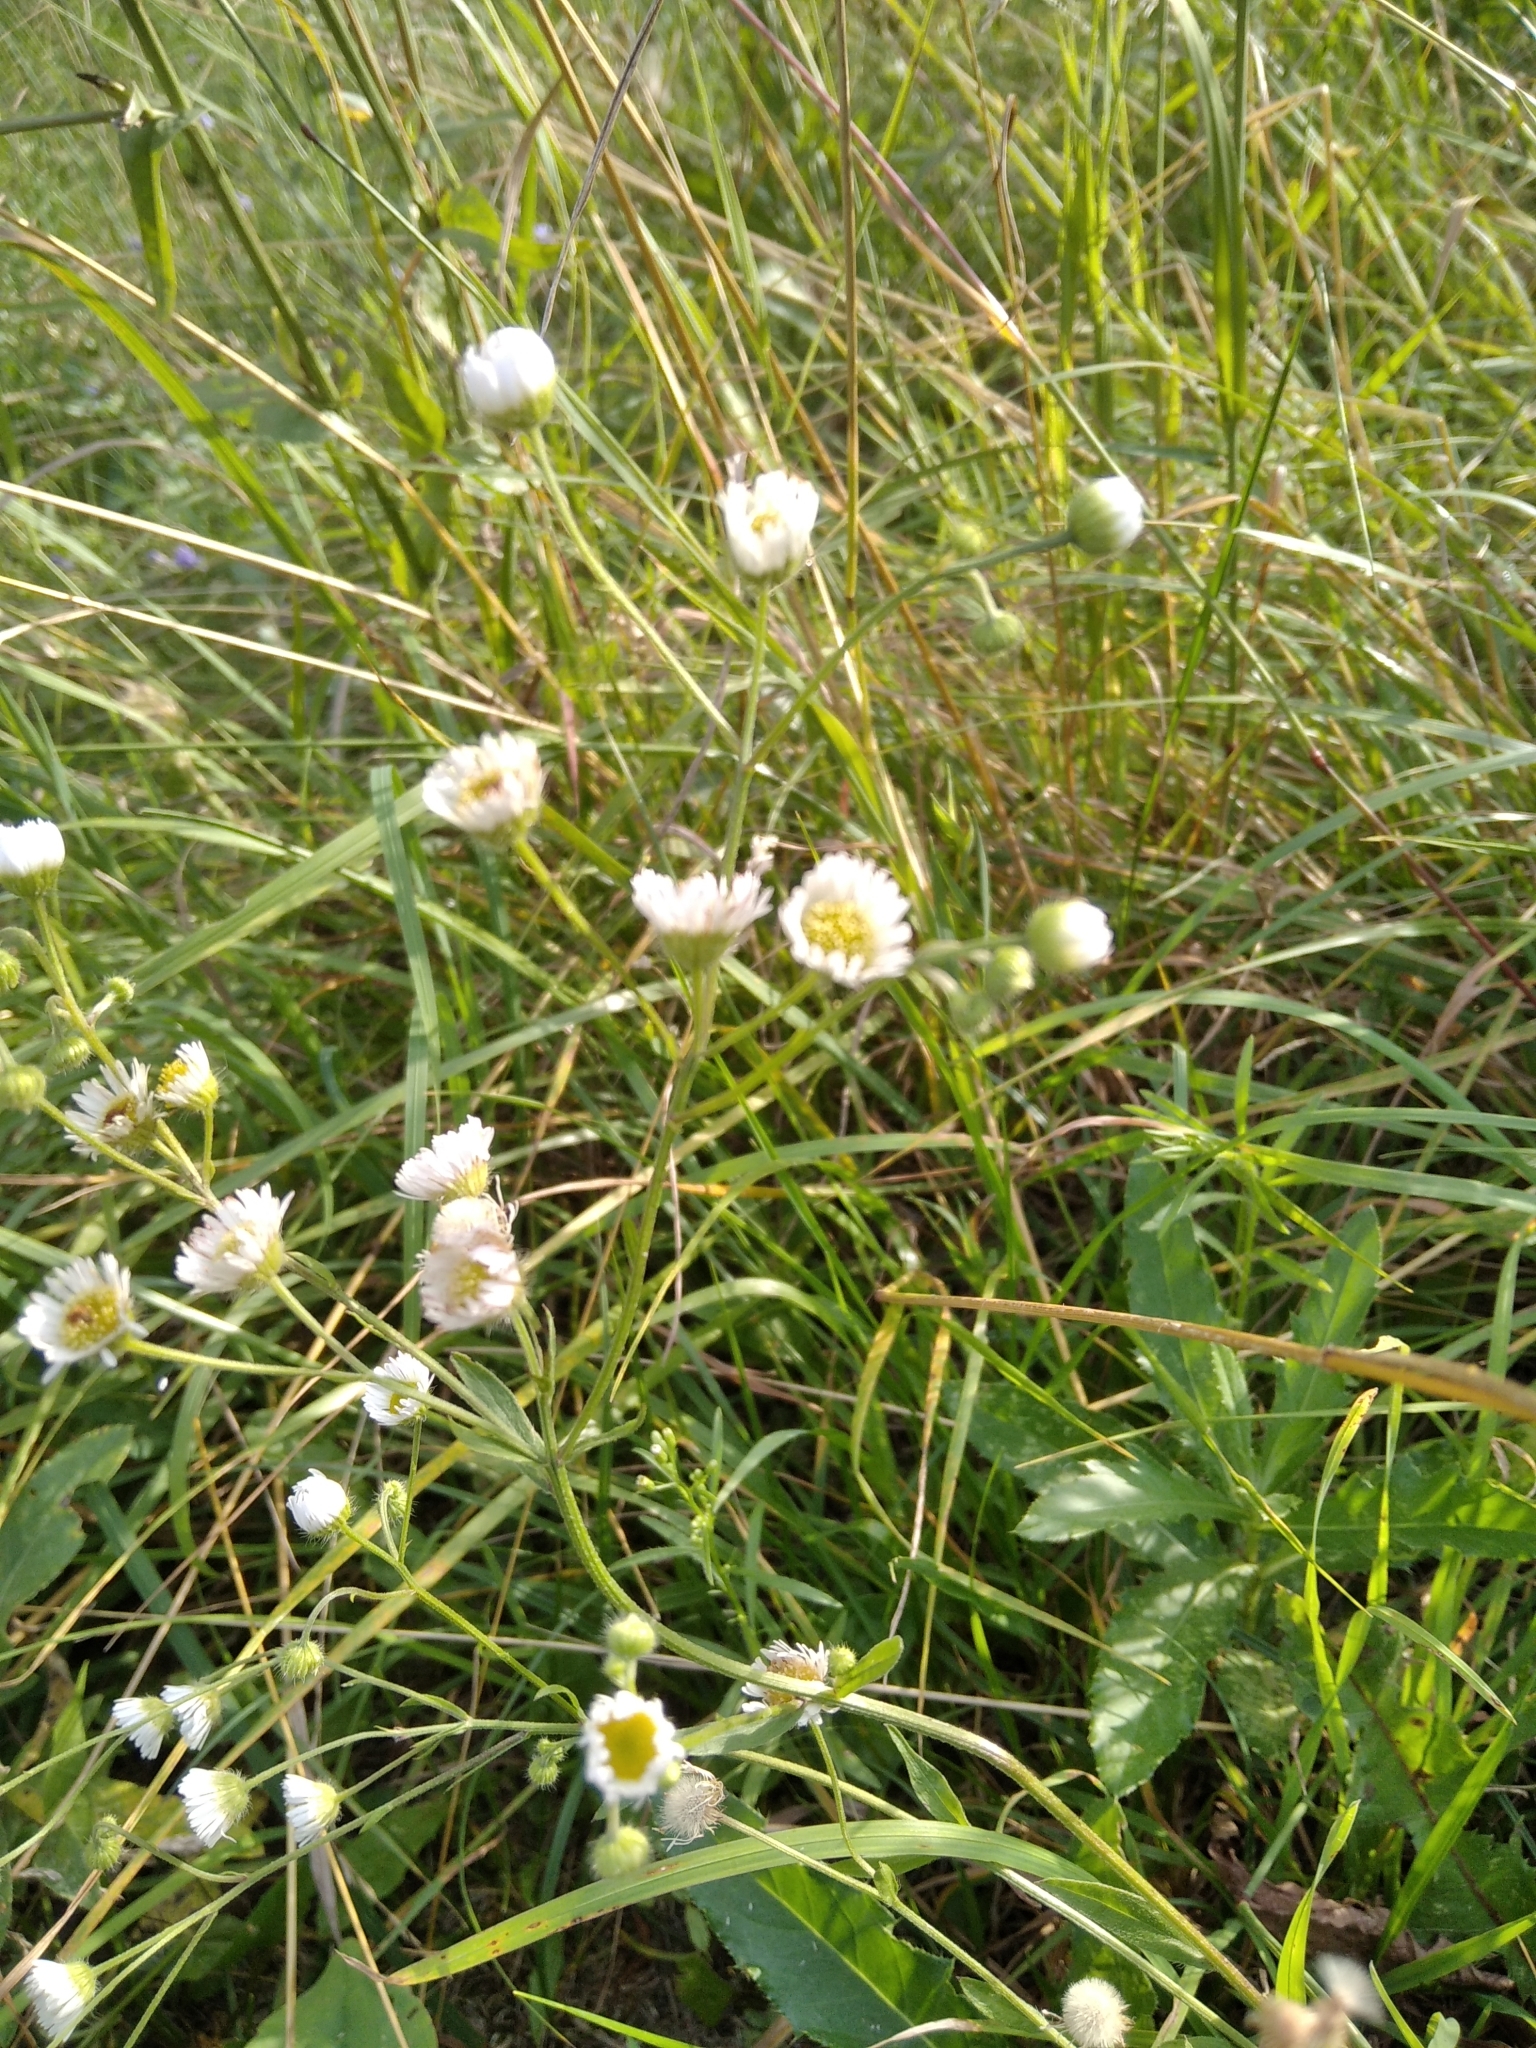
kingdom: Plantae
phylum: Tracheophyta
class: Magnoliopsida
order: Asterales
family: Asteraceae
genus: Erigeron
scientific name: Erigeron annuus
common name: Tall fleabane
